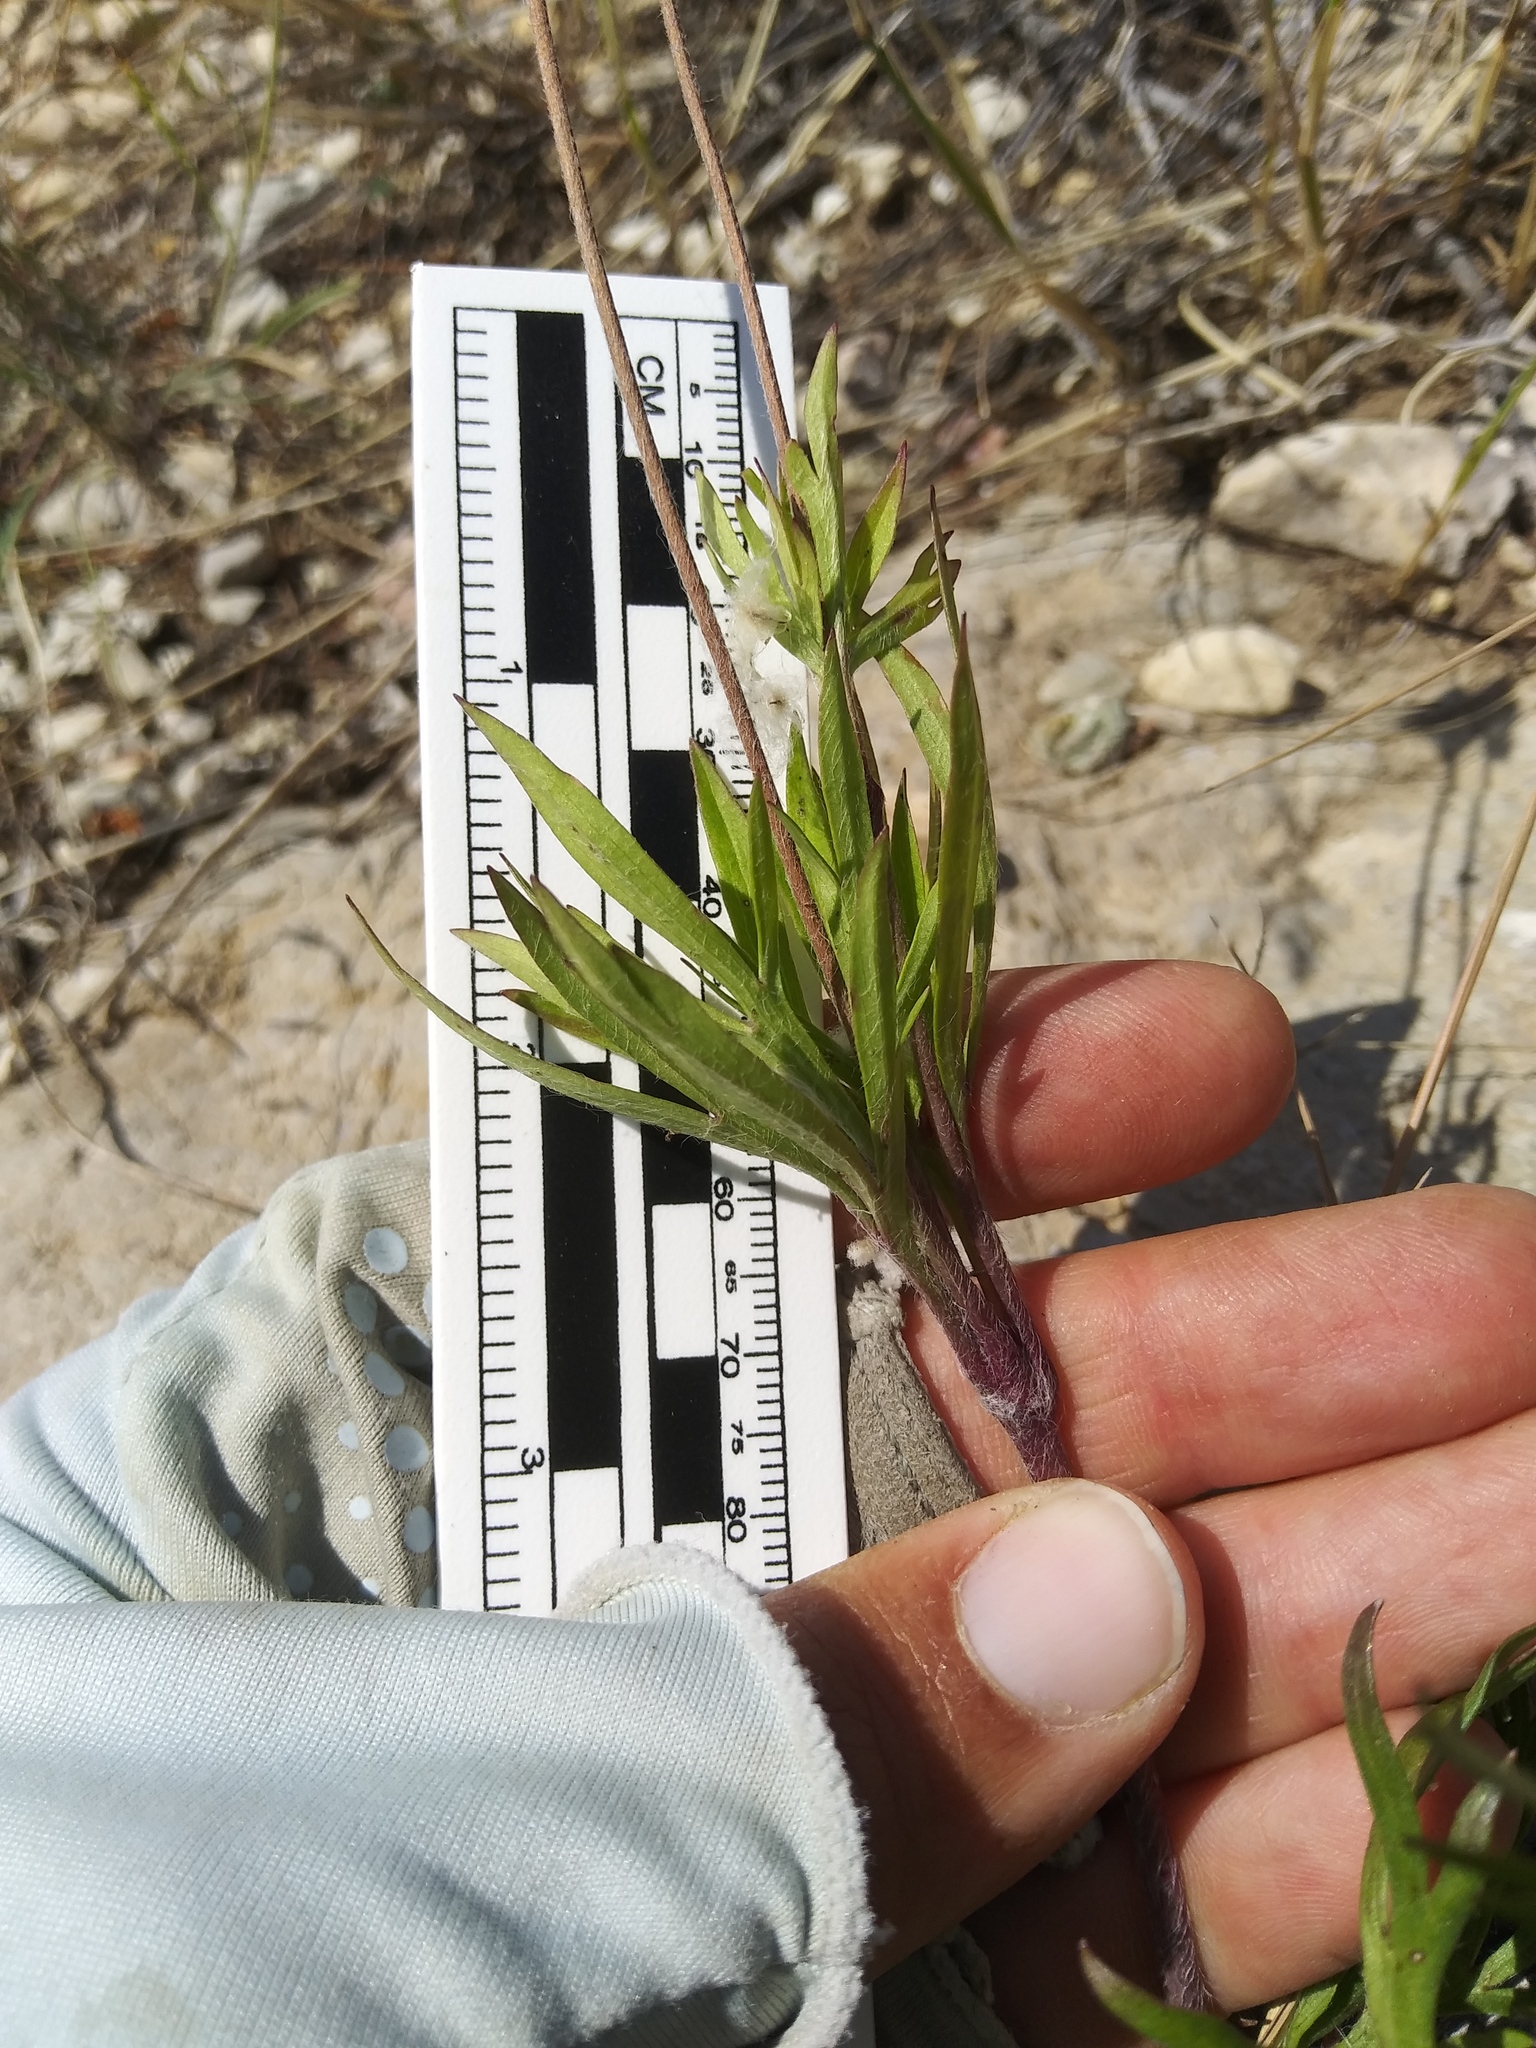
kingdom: Plantae
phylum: Tracheophyta
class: Magnoliopsida
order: Ranunculales
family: Ranunculaceae
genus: Anemone
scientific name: Anemone multifida
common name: Bird's-foot anemone
